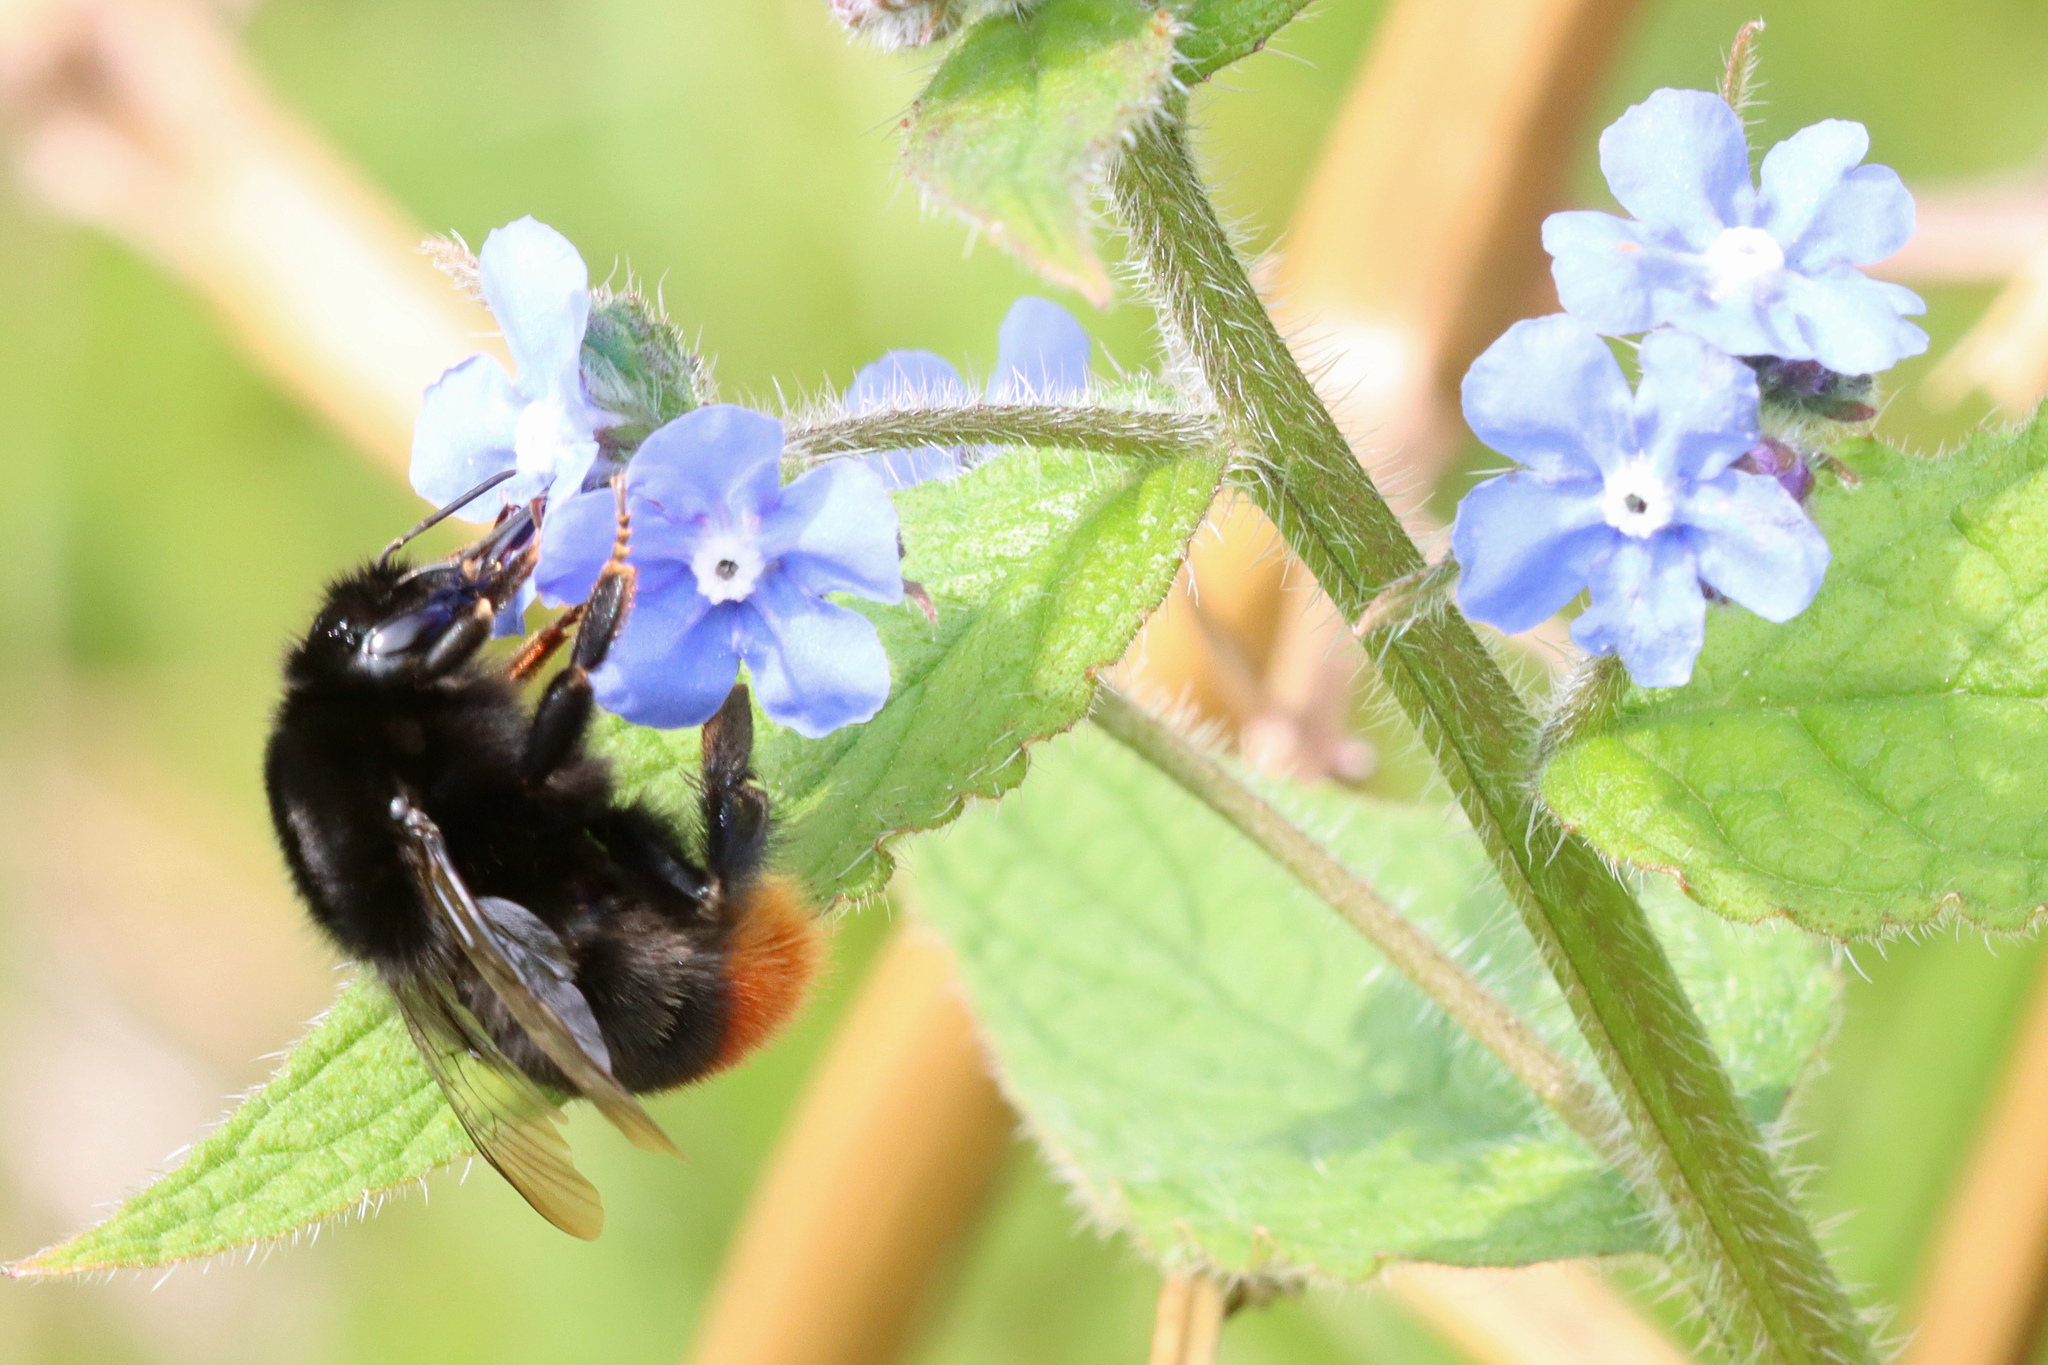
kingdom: Animalia
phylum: Arthropoda
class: Insecta
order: Hymenoptera
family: Apidae
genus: Bombus
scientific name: Bombus lapidarius
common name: Large red-tailed humble-bee
